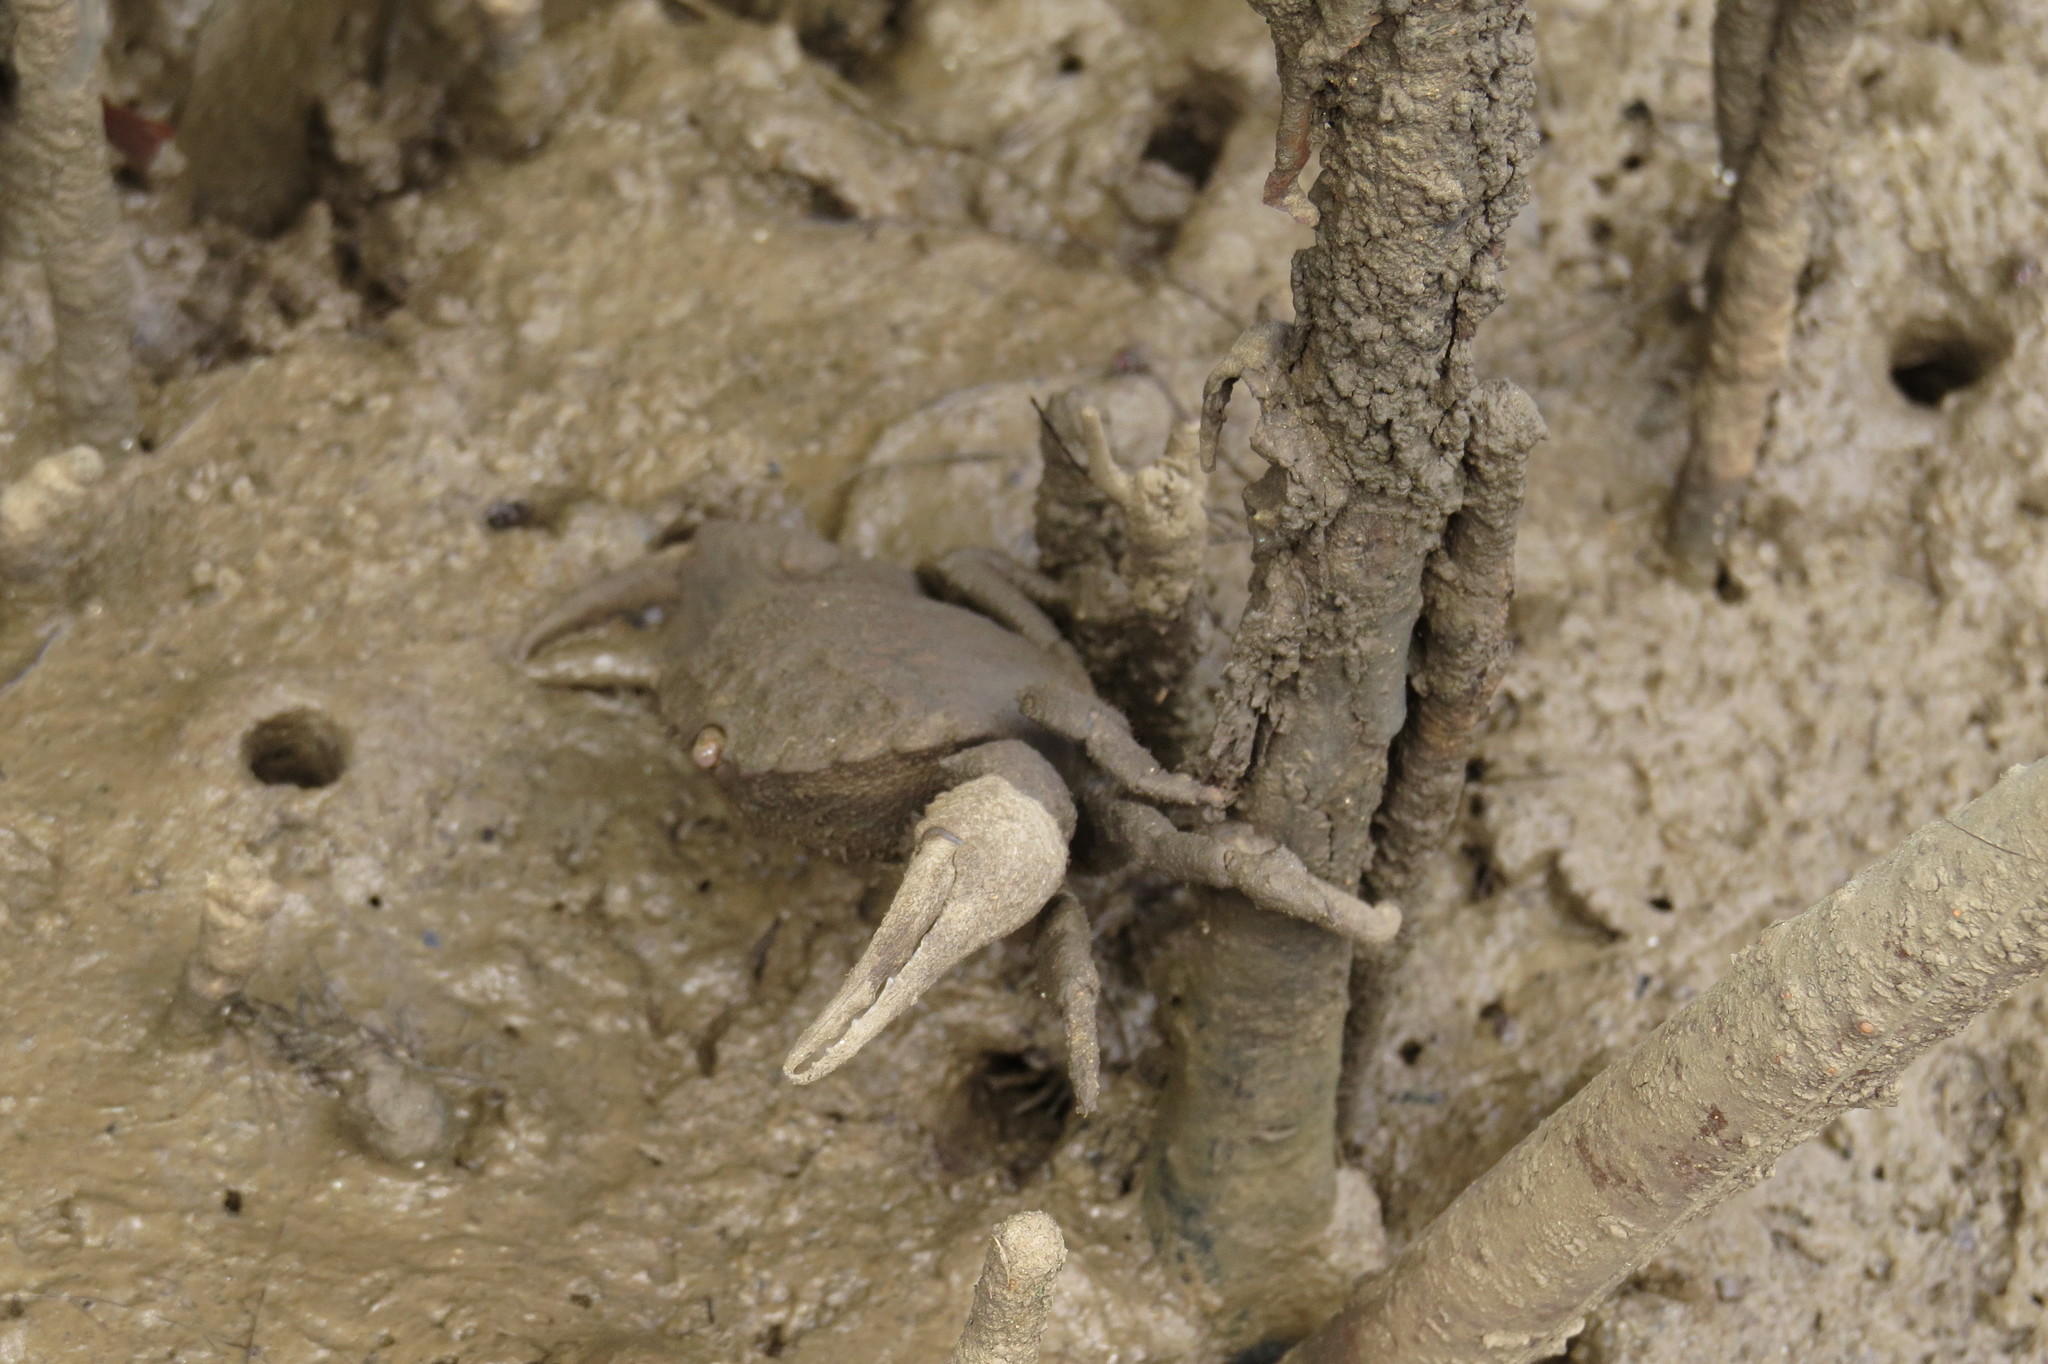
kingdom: Animalia
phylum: Arthropoda
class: Malacostraca
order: Decapoda
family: Oziidae
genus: Epixanthus
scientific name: Epixanthus dentatus
